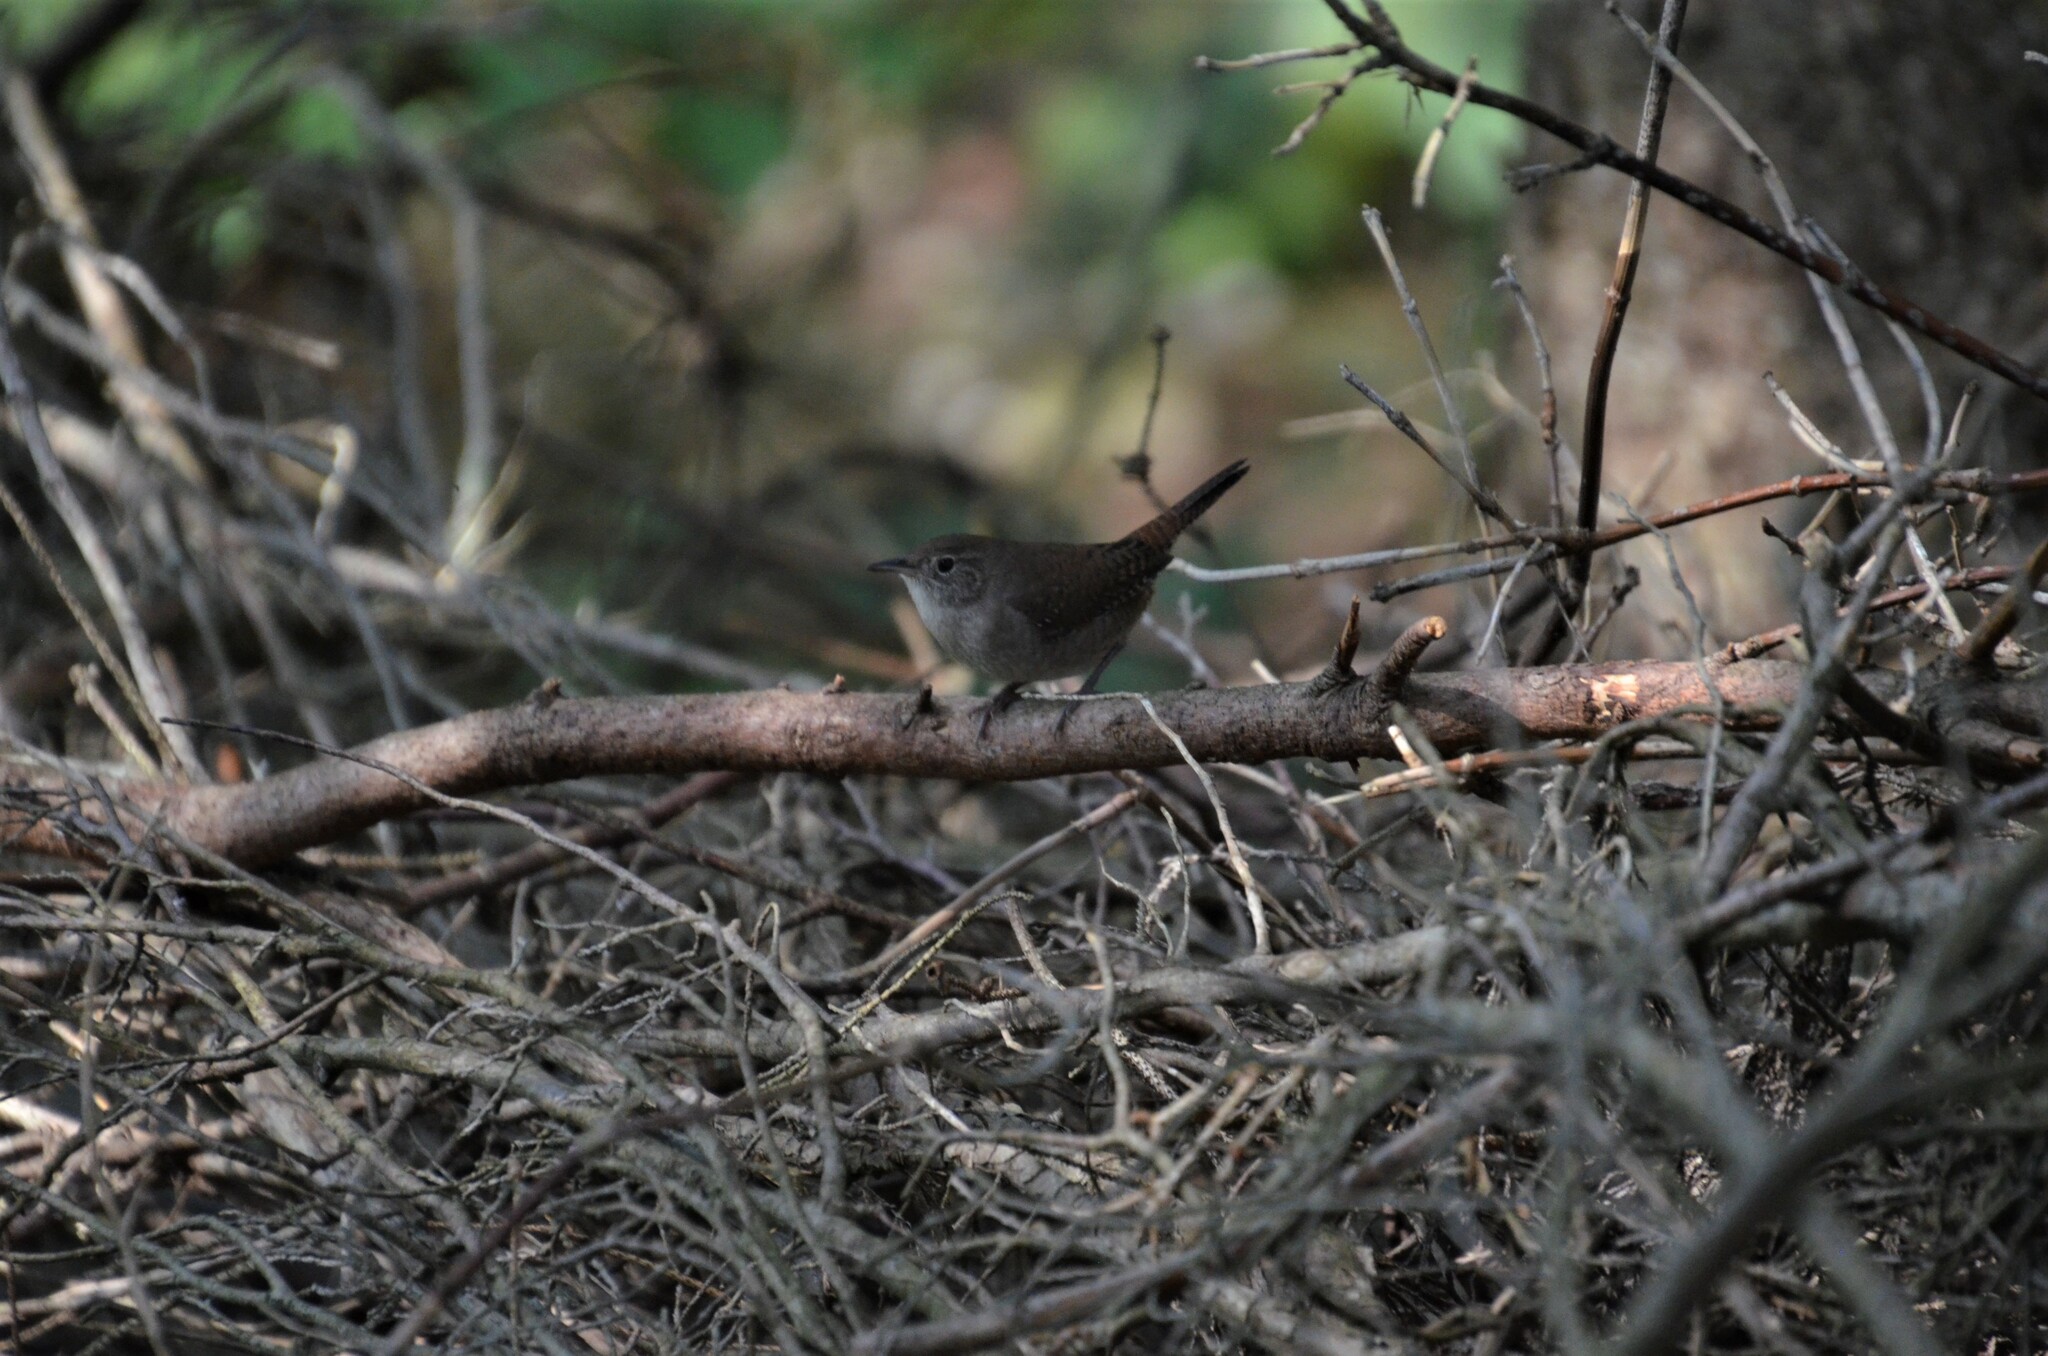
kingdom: Animalia
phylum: Chordata
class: Aves
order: Passeriformes
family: Troglodytidae
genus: Troglodytes
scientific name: Troglodytes aedon
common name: House wren
